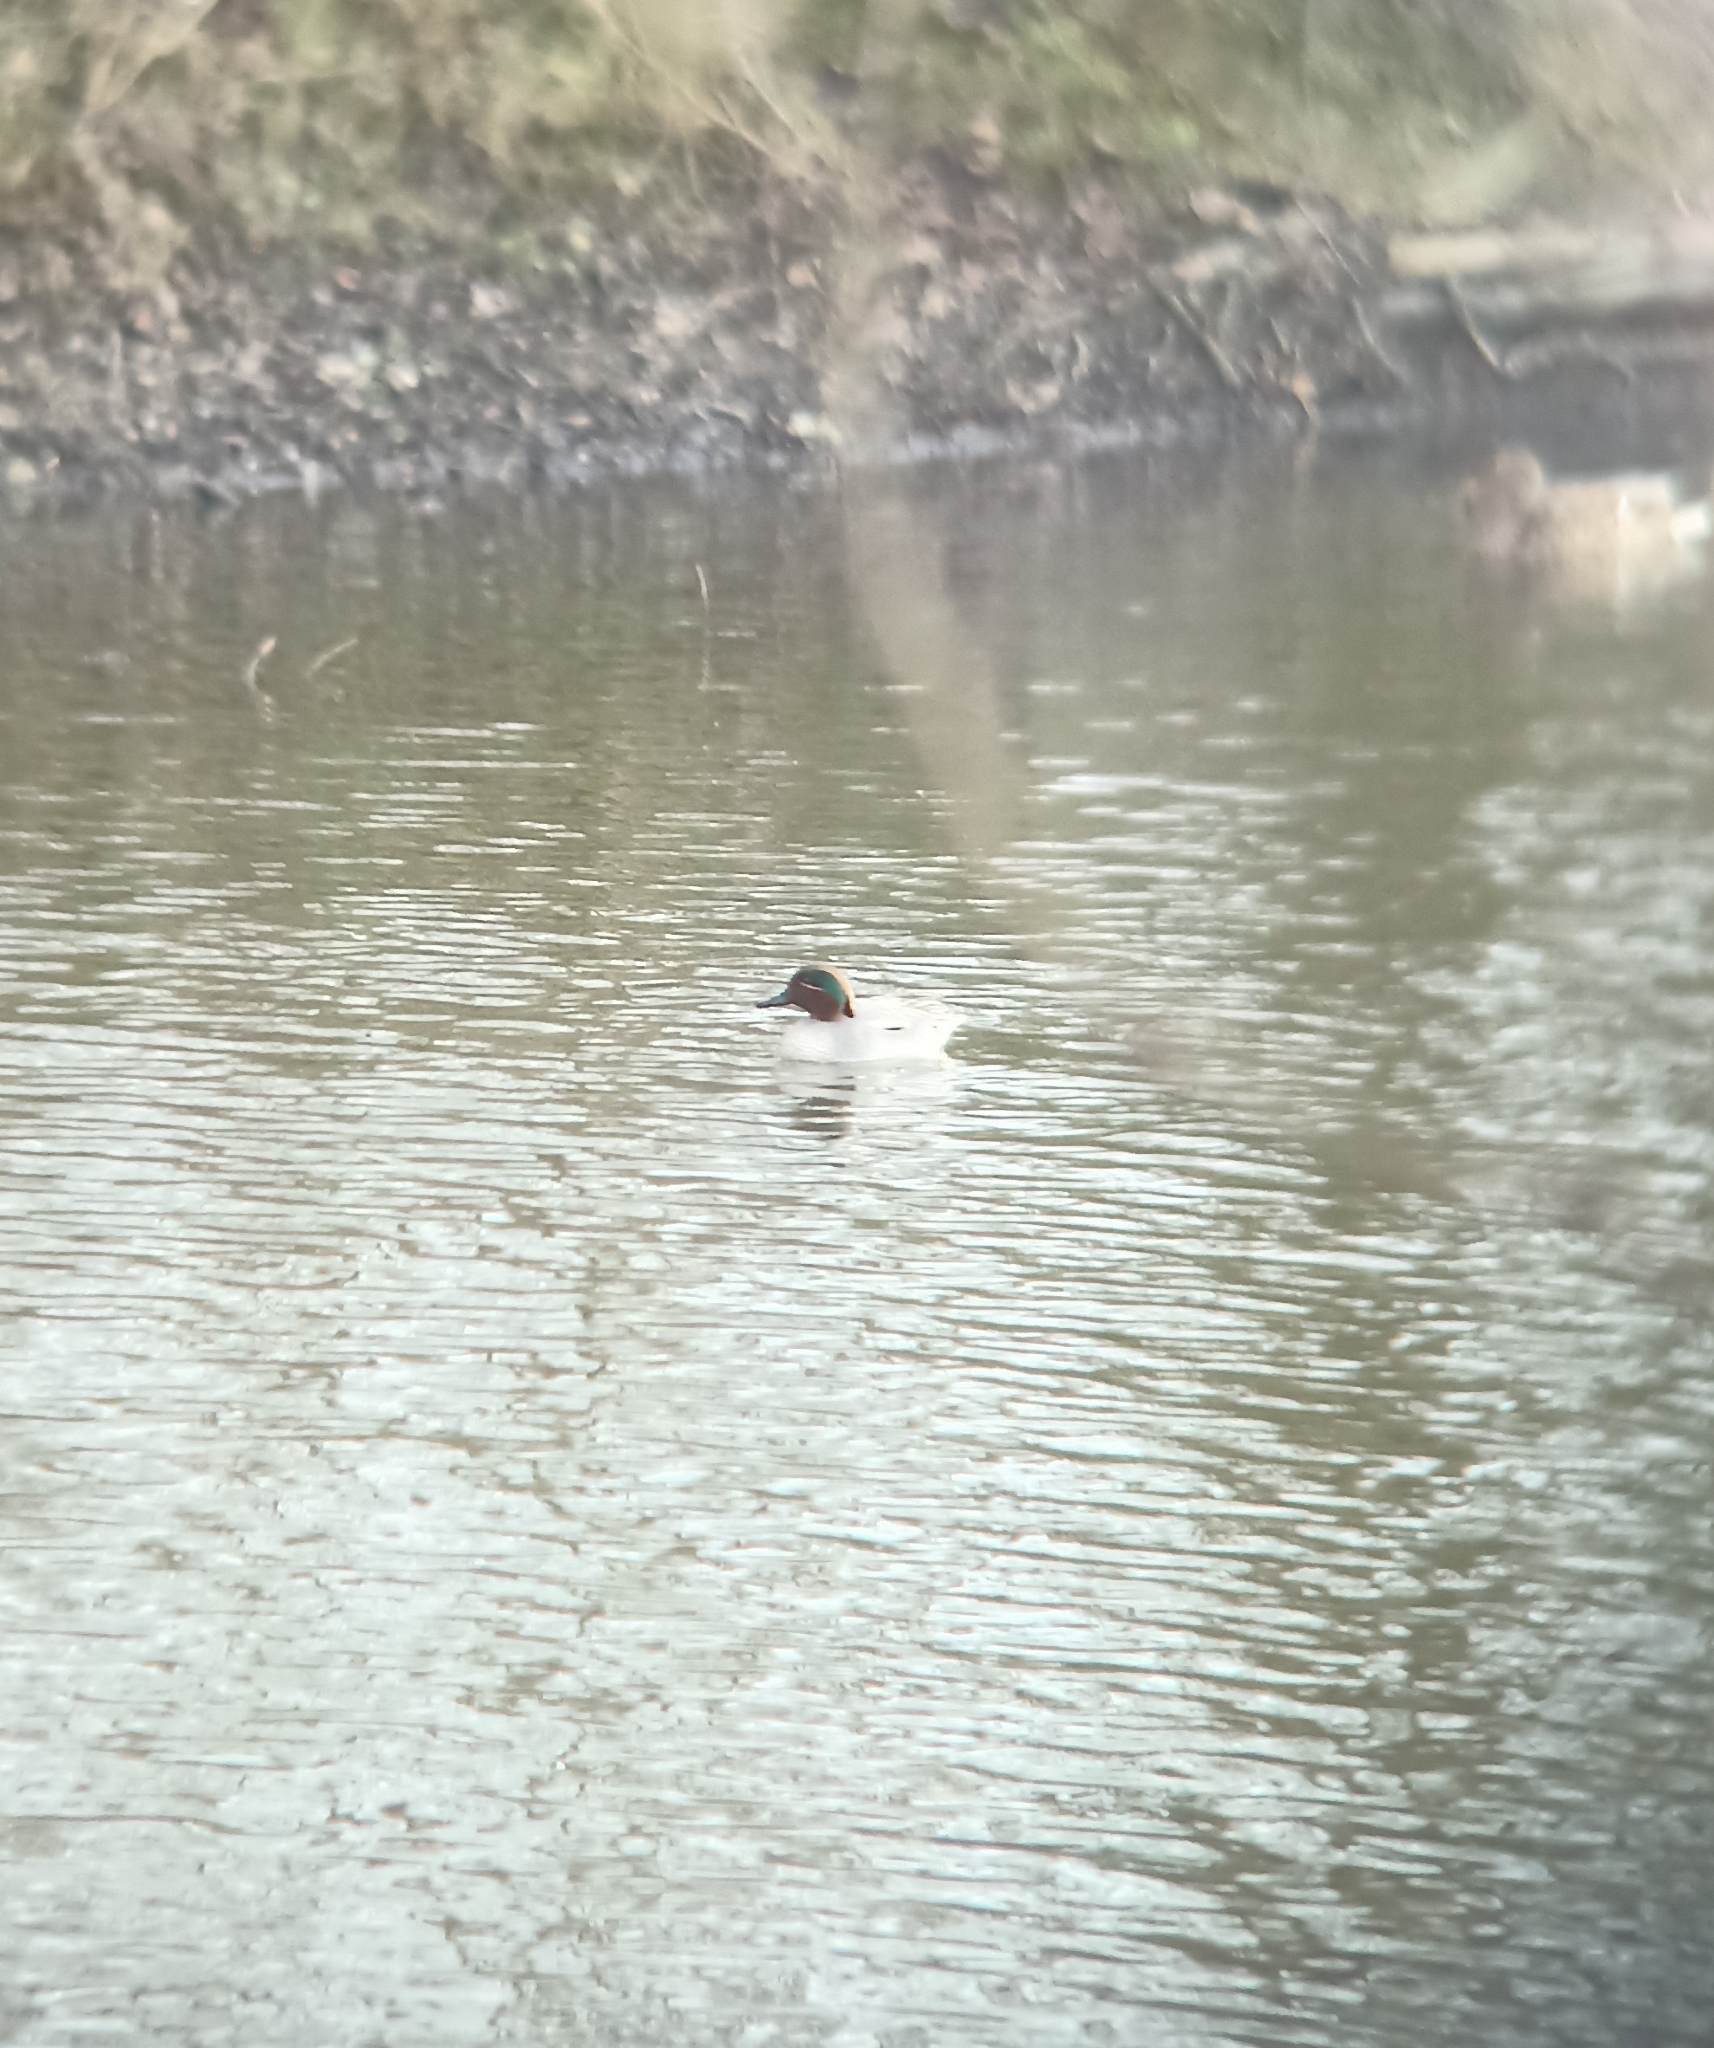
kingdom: Animalia
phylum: Chordata
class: Aves
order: Anseriformes
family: Anatidae
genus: Anas
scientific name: Anas crecca
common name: Eurasian teal
